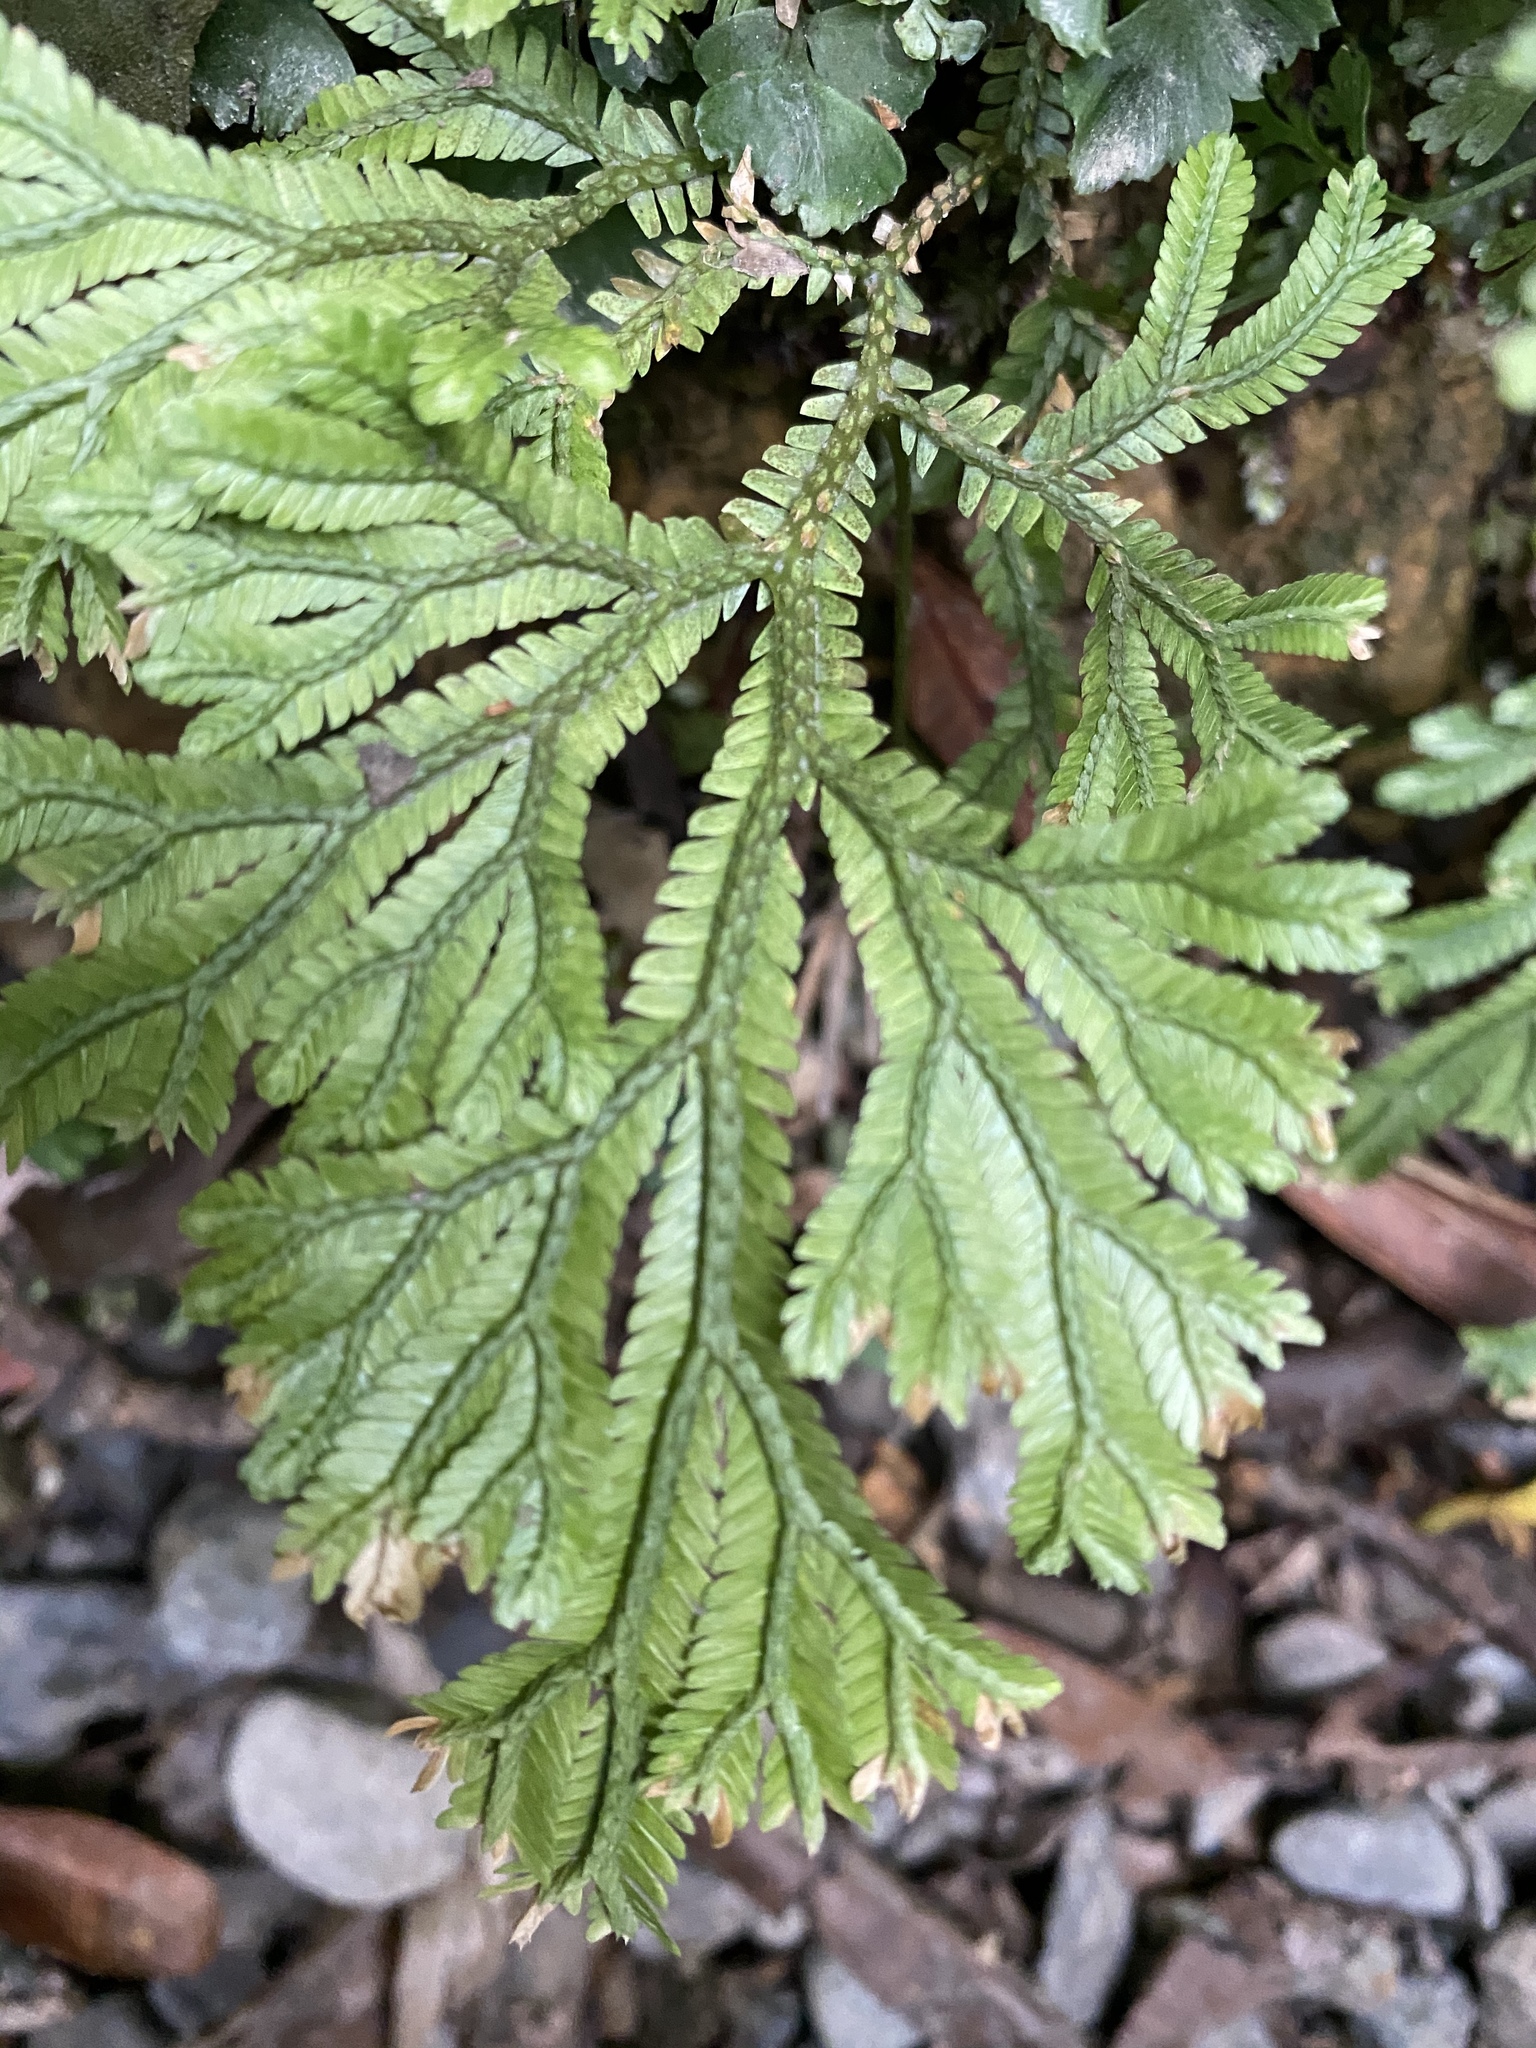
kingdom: Plantae
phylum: Tracheophyta
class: Lycopodiopsida
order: Selaginellales
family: Selaginellaceae
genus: Selaginella
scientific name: Selaginella doederleinii
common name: Greater selaginella
